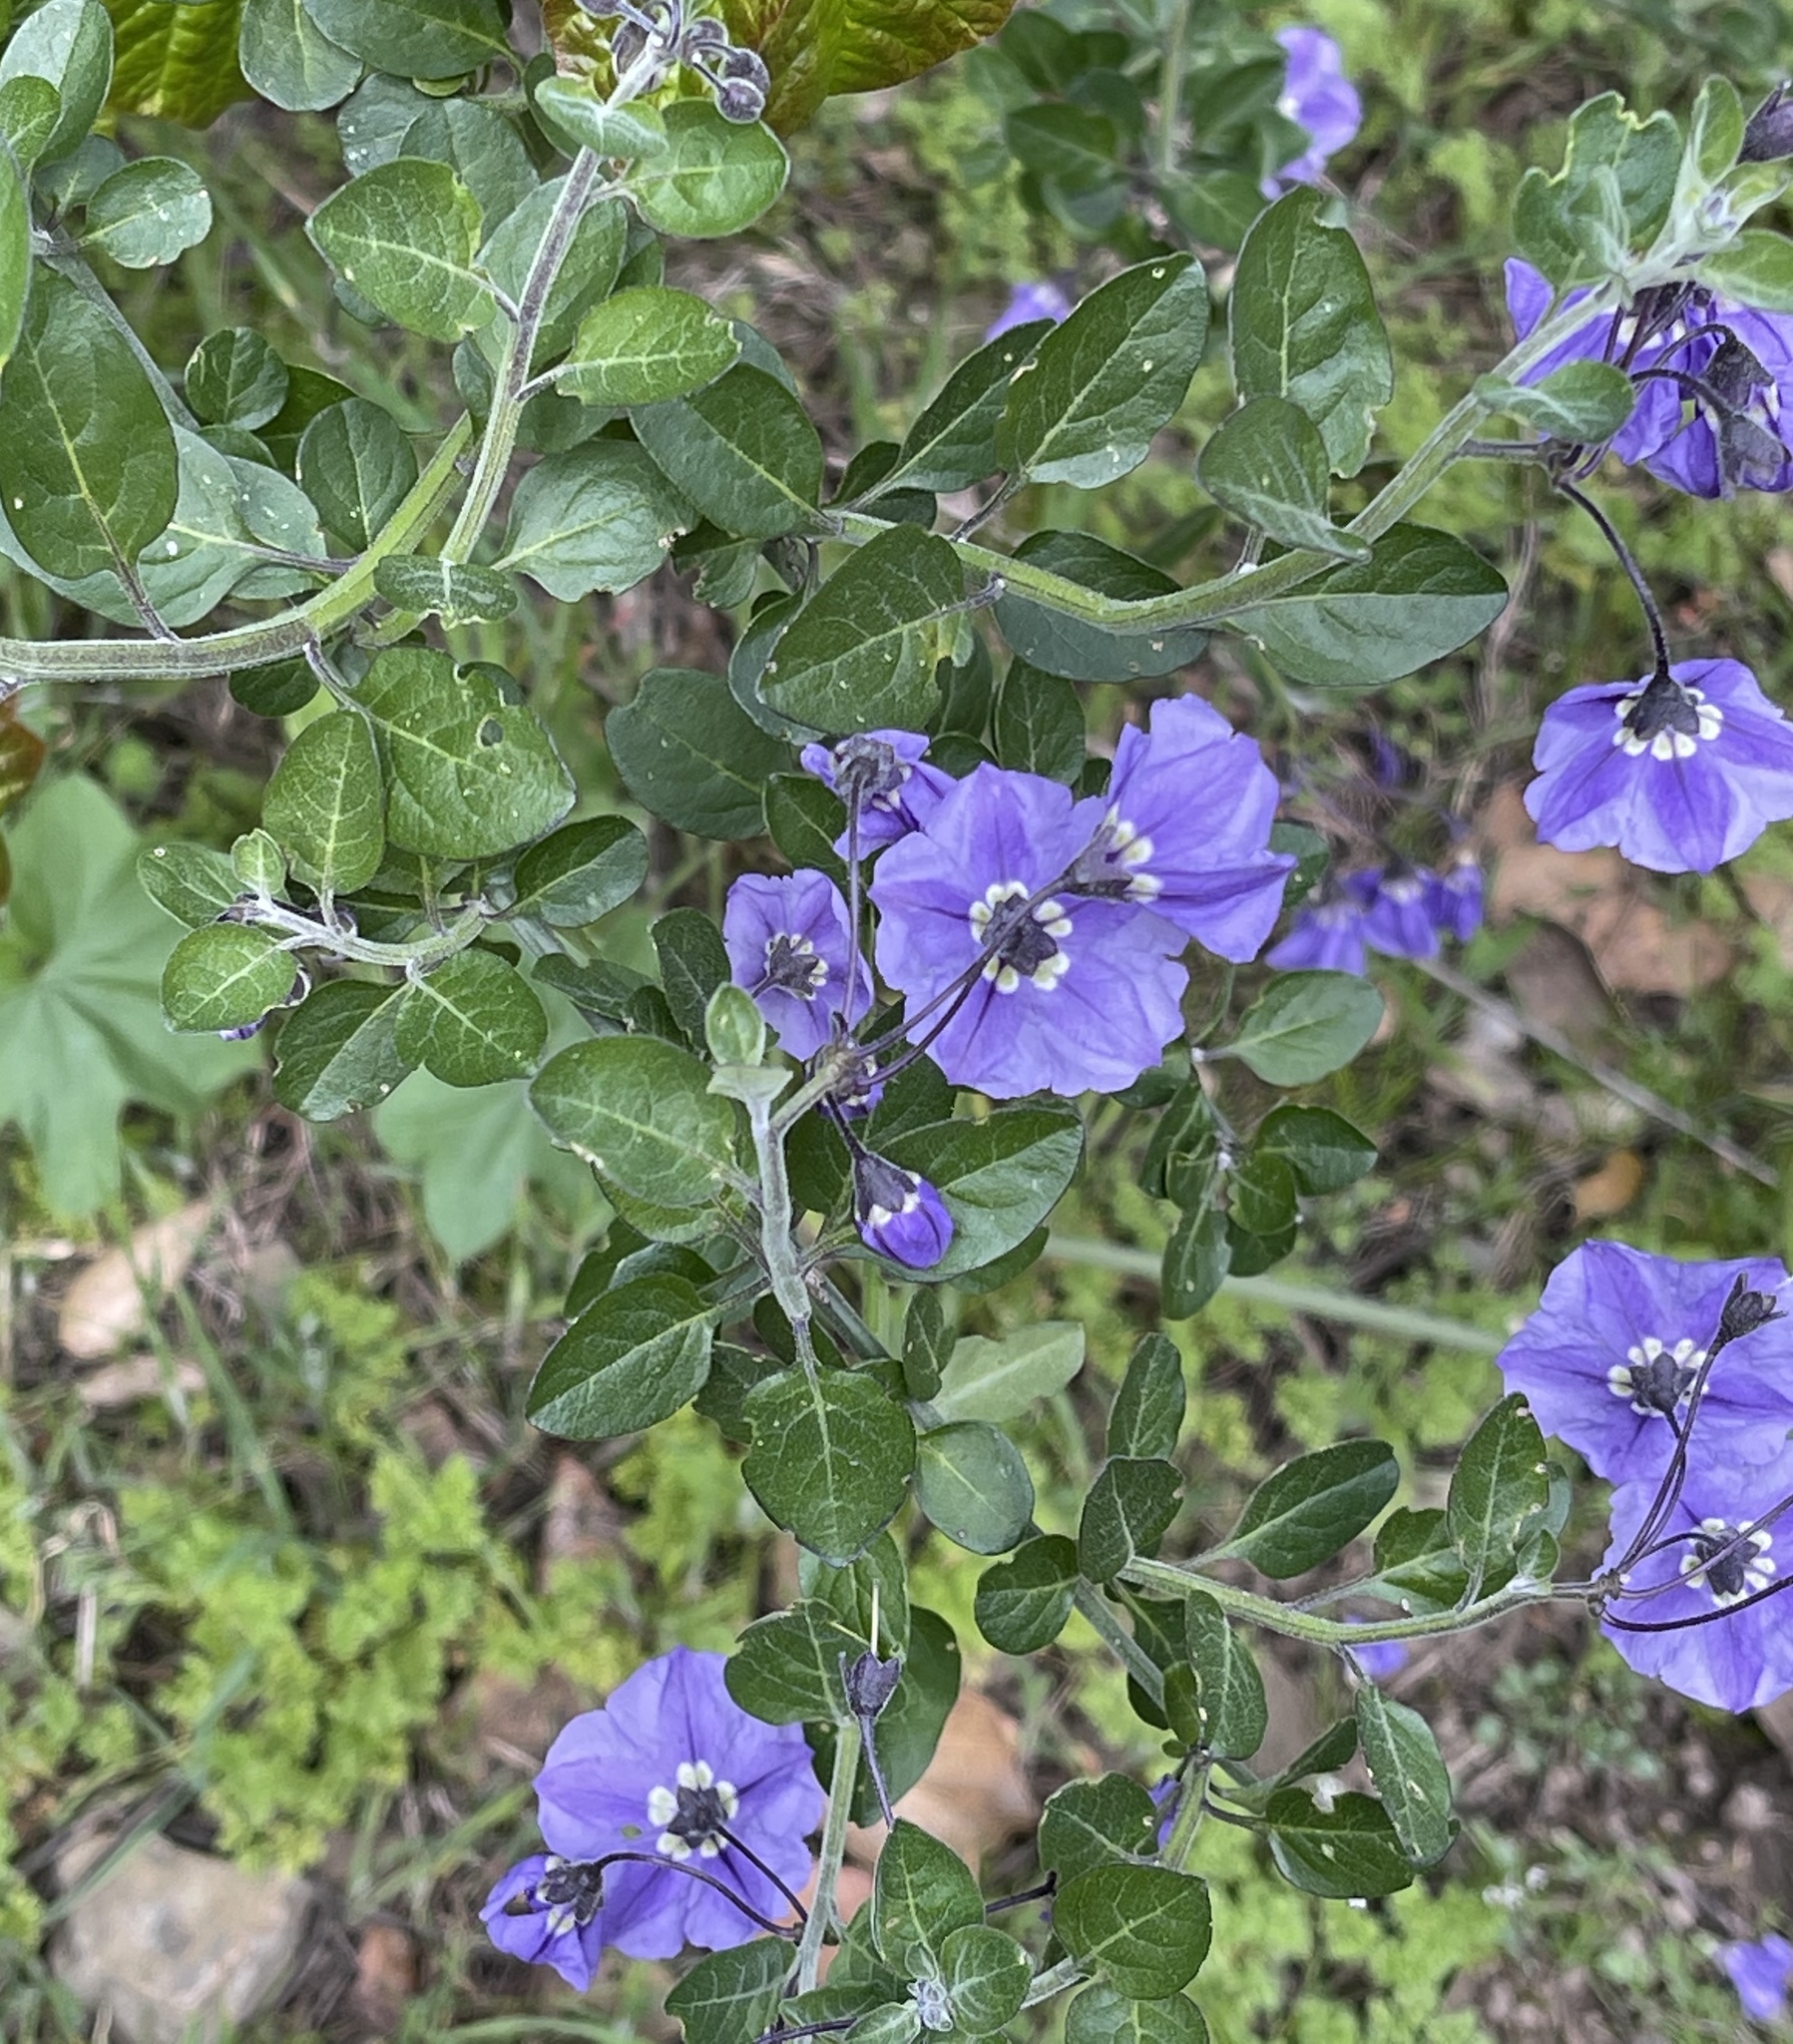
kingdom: Plantae
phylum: Tracheophyta
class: Magnoliopsida
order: Solanales
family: Solanaceae
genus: Solanum
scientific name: Solanum umbelliferum
